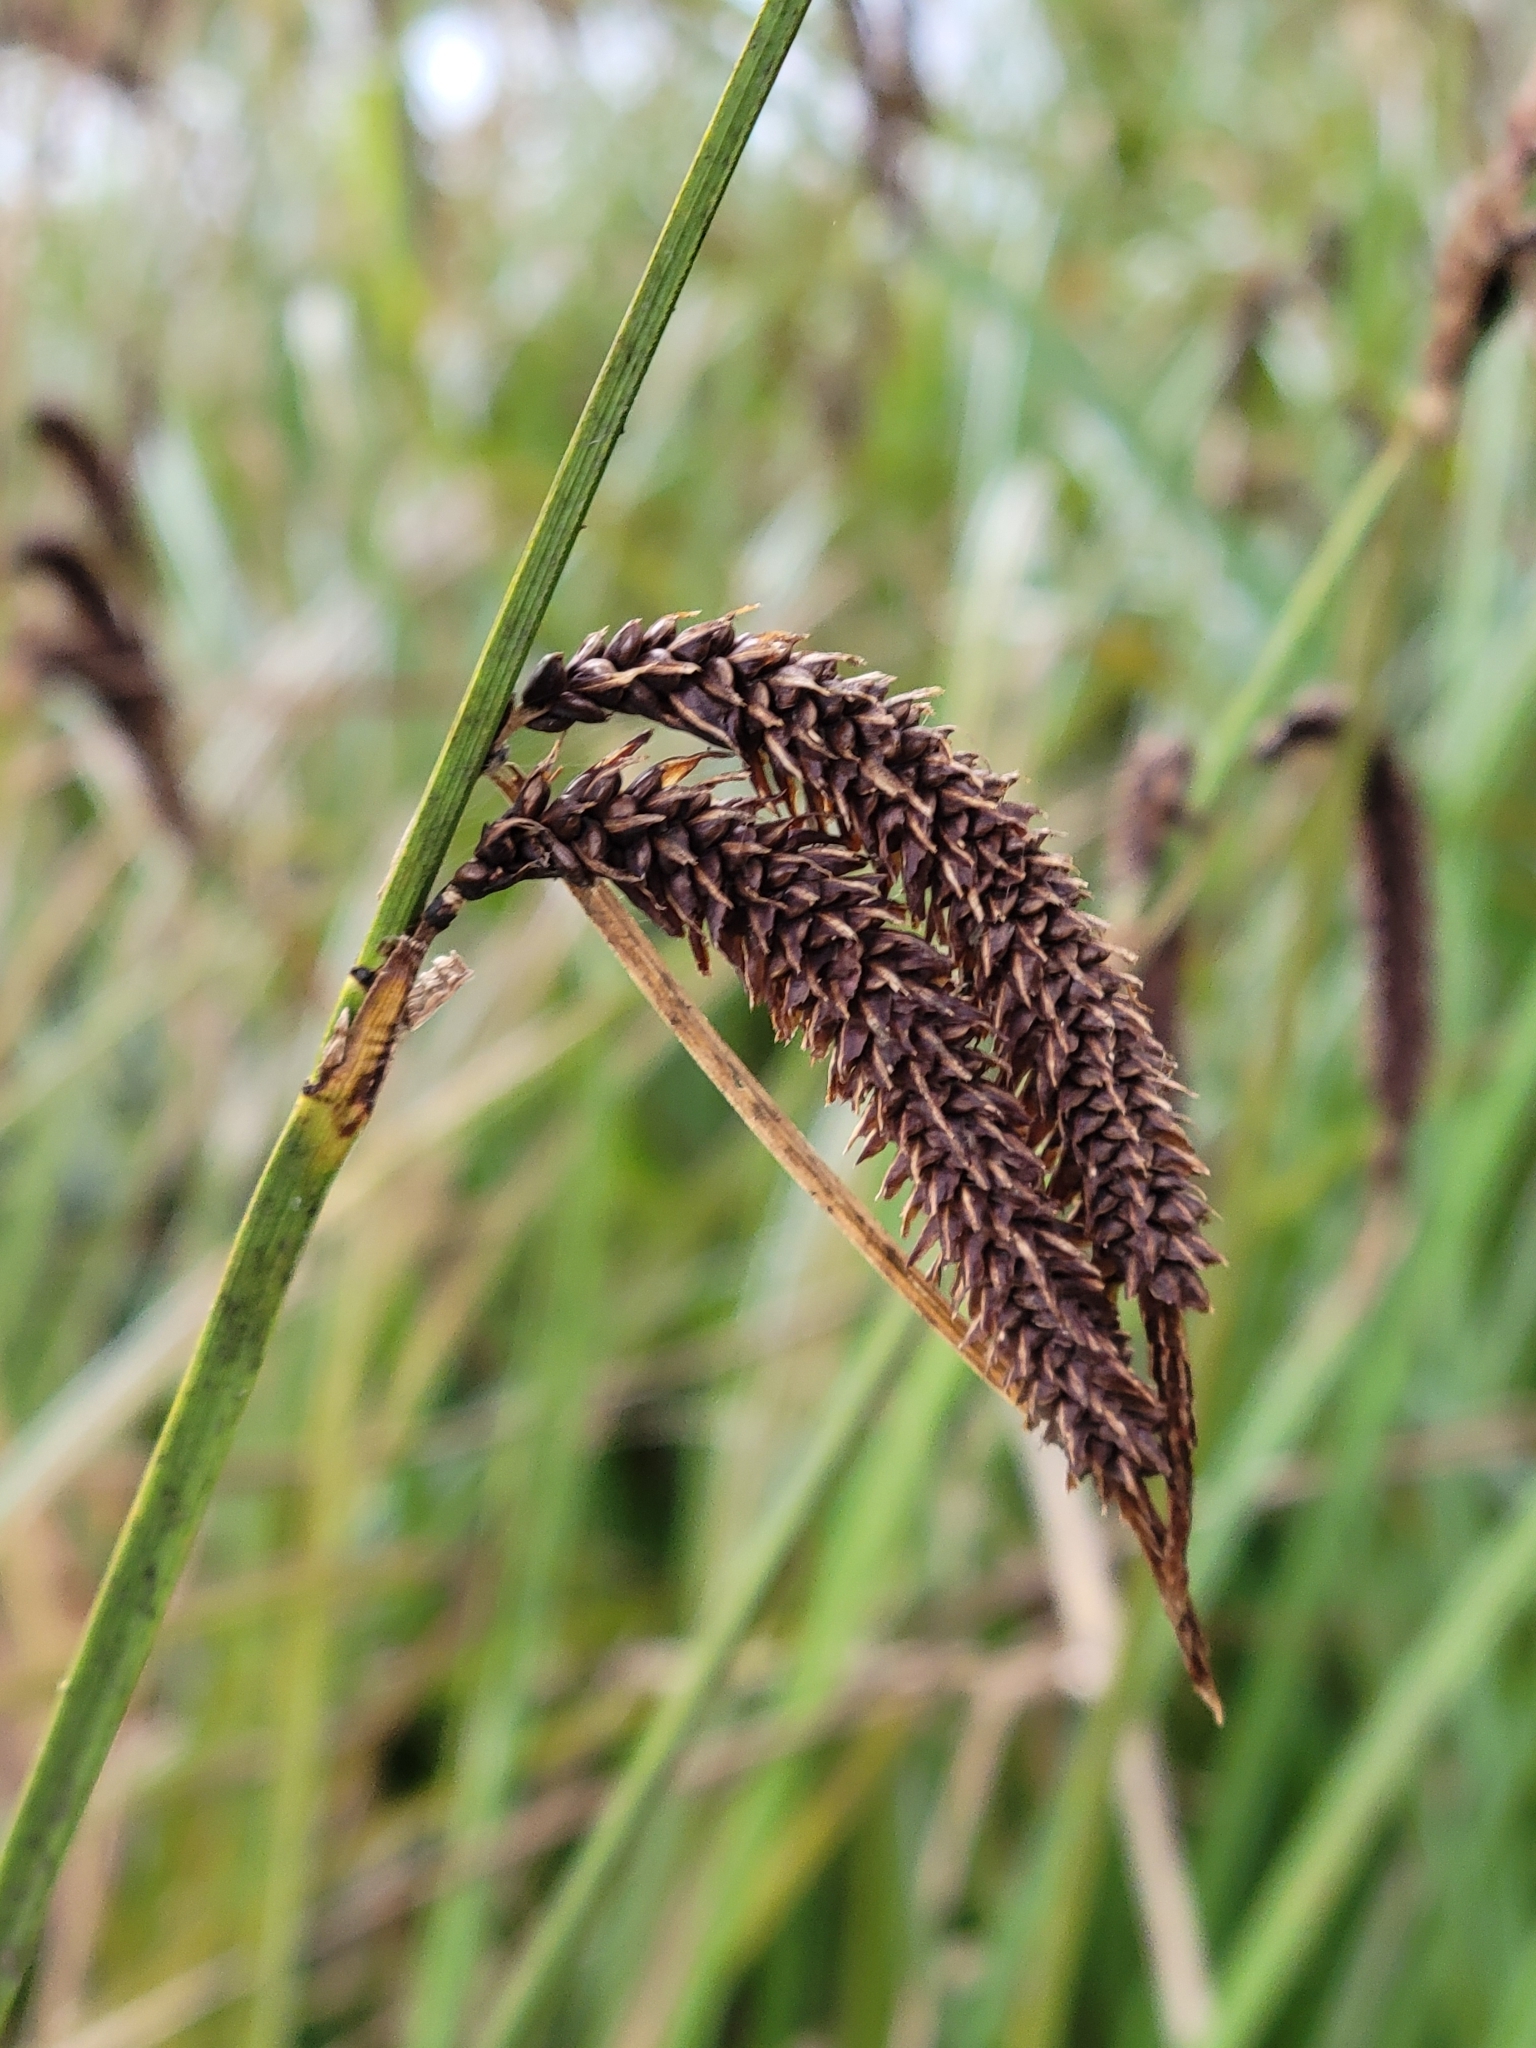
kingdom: Plantae
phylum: Tracheophyta
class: Liliopsida
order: Poales
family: Cyperaceae
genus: Carex
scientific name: Carex obnupta
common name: Slough sedge
